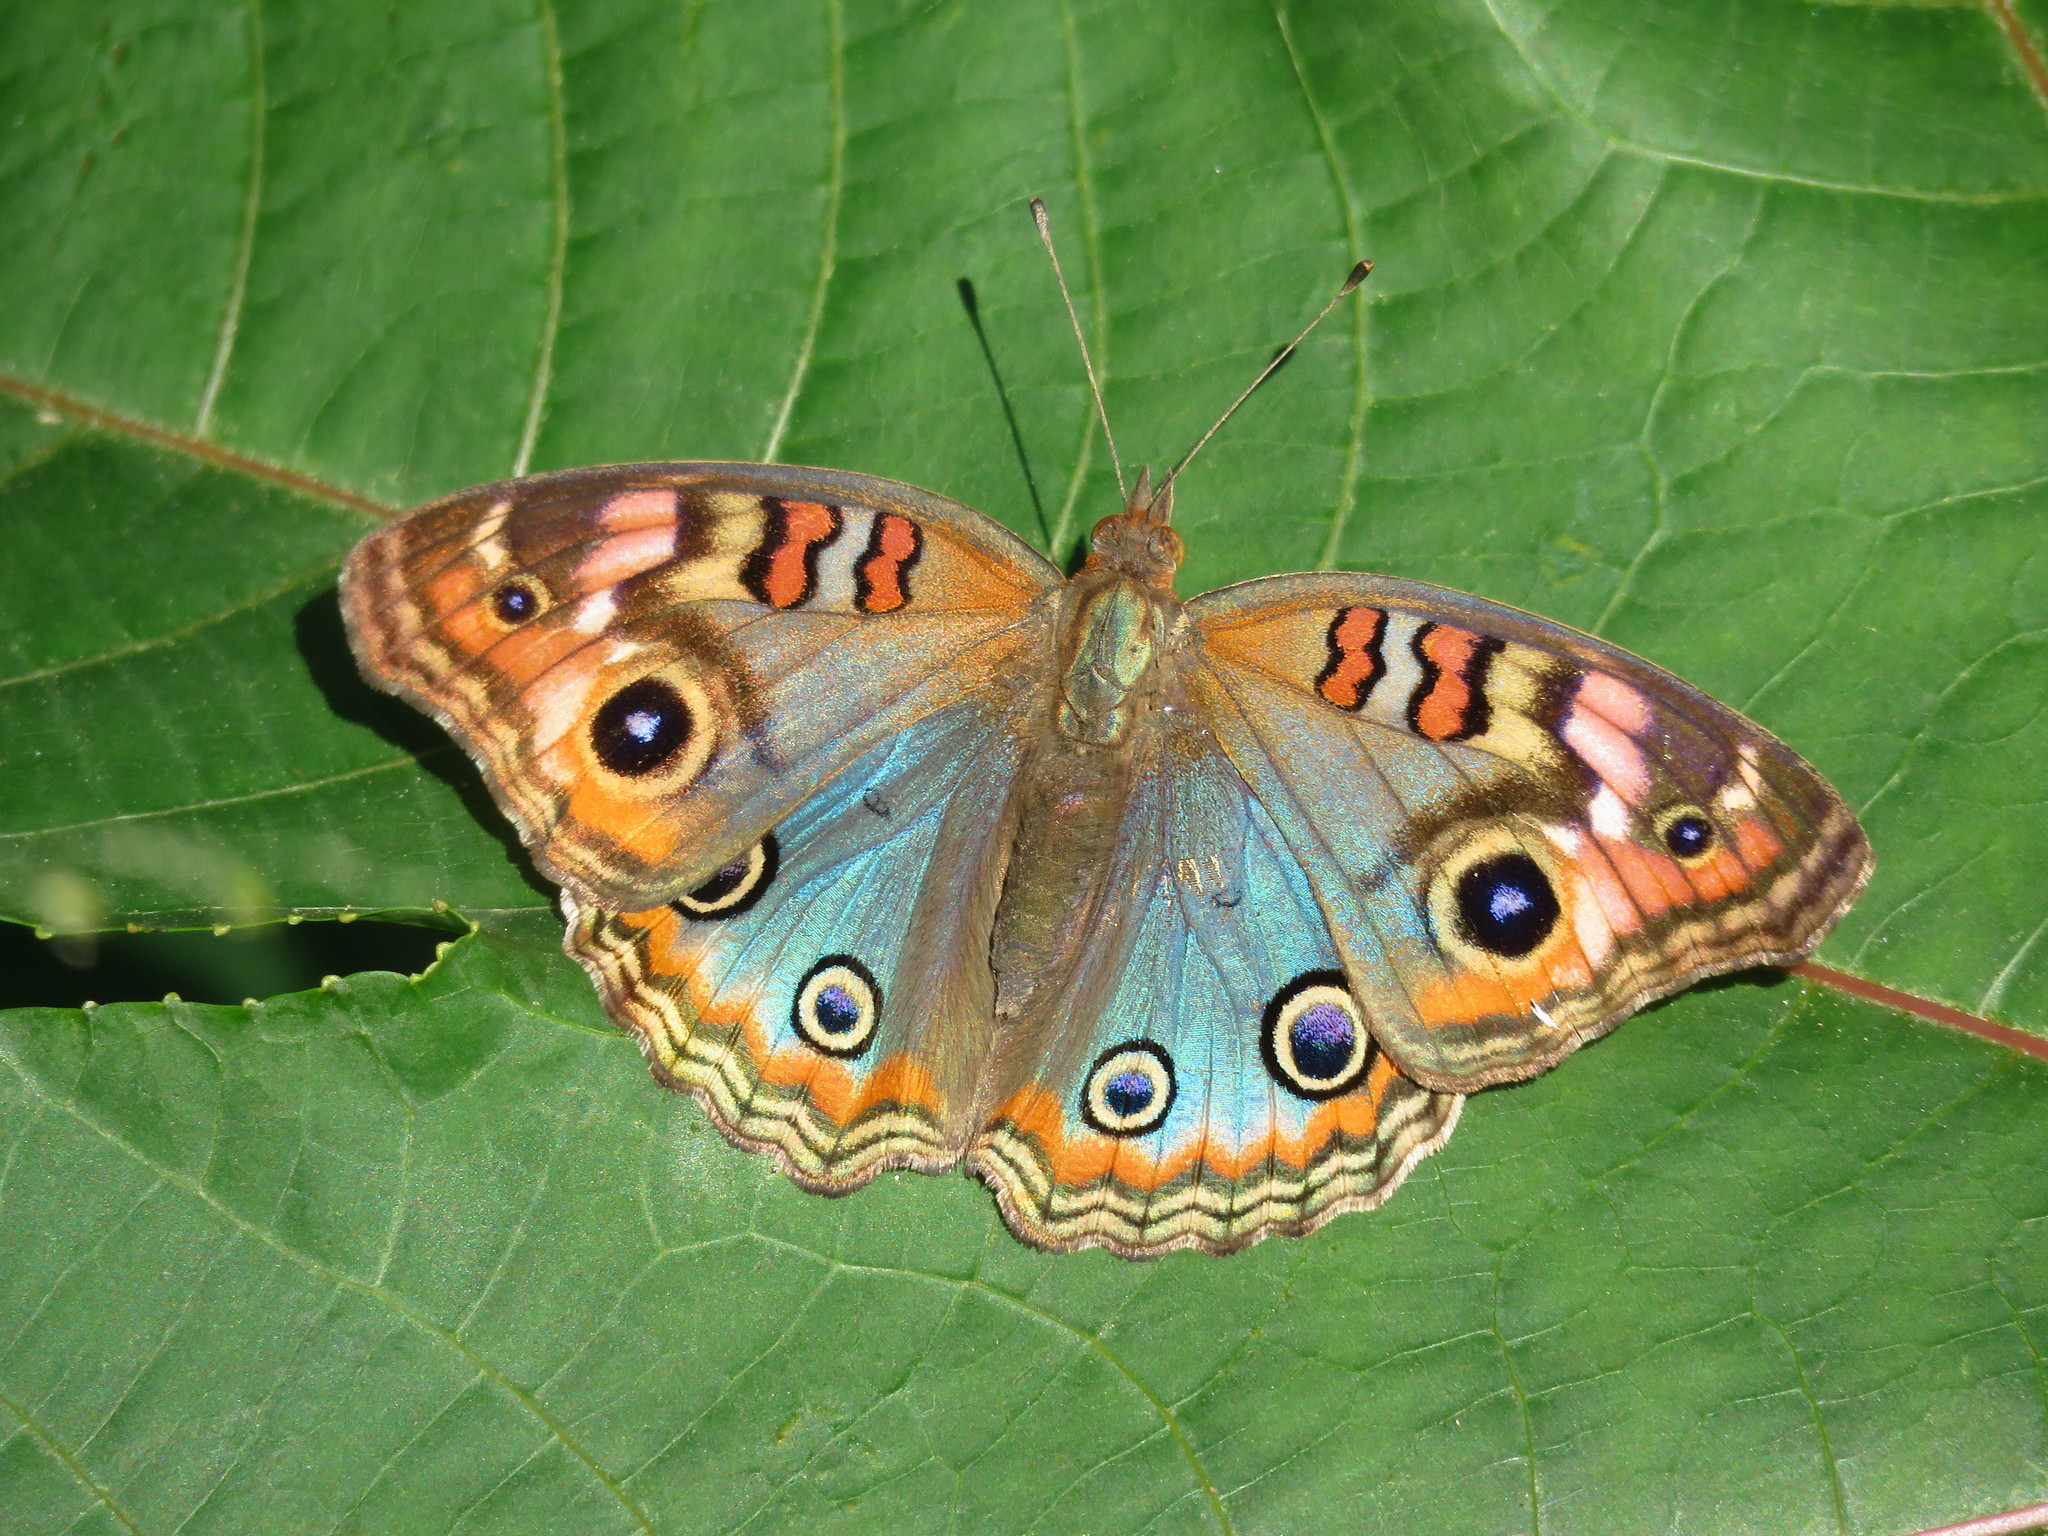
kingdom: Animalia
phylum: Arthropoda
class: Insecta
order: Lepidoptera
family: Nymphalidae
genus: Junonia
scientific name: Junonia lavinia
